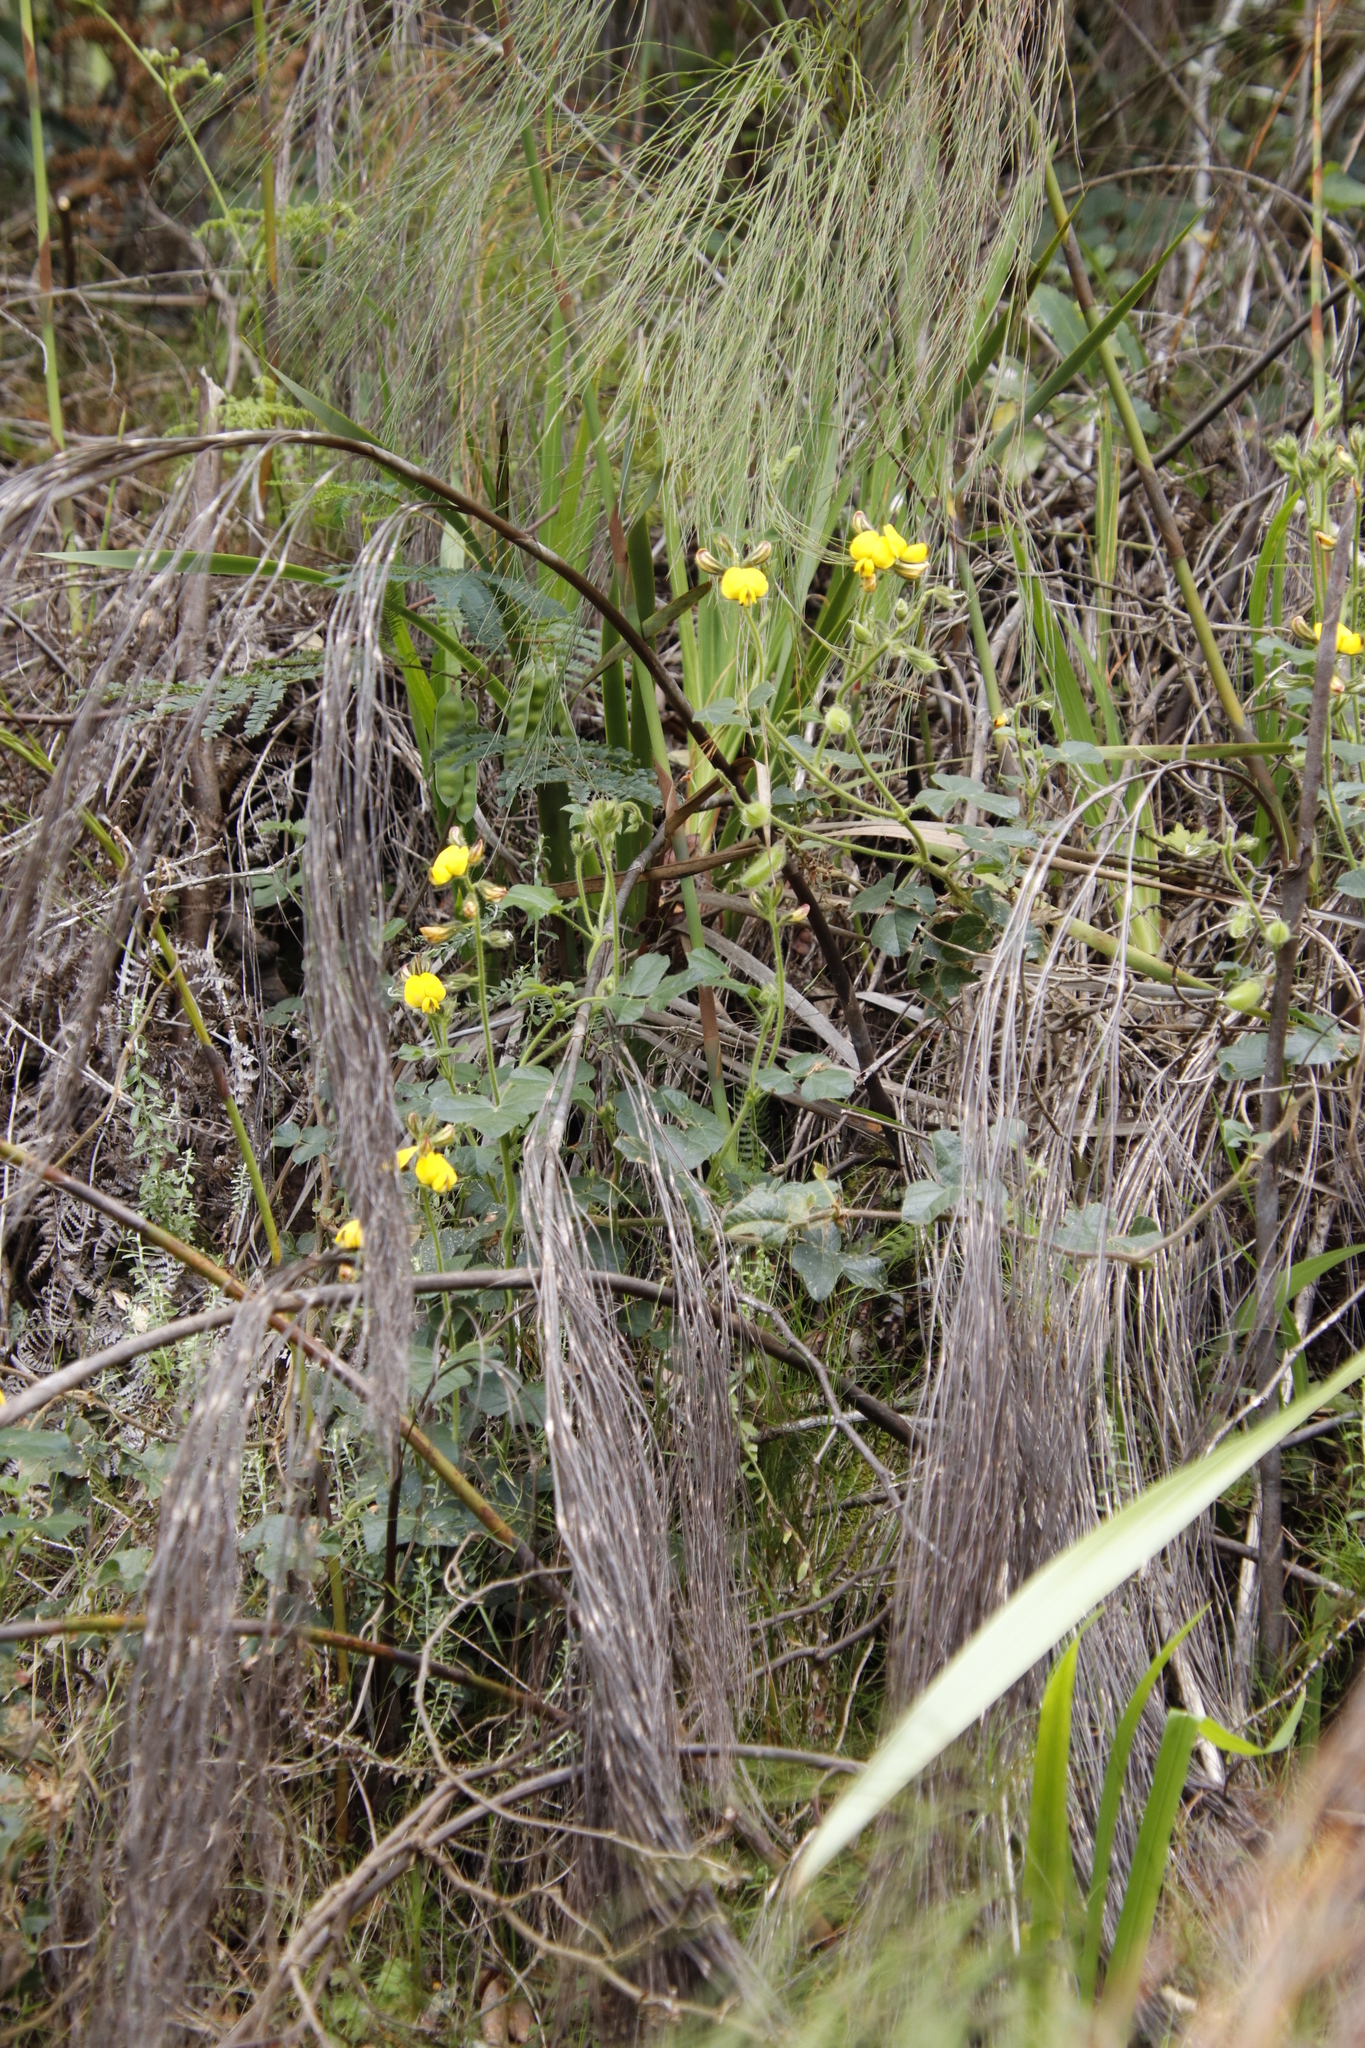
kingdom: Plantae
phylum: Tracheophyta
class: Magnoliopsida
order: Fabales
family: Fabaceae
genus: Bolusafra
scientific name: Bolusafra bituminosa
